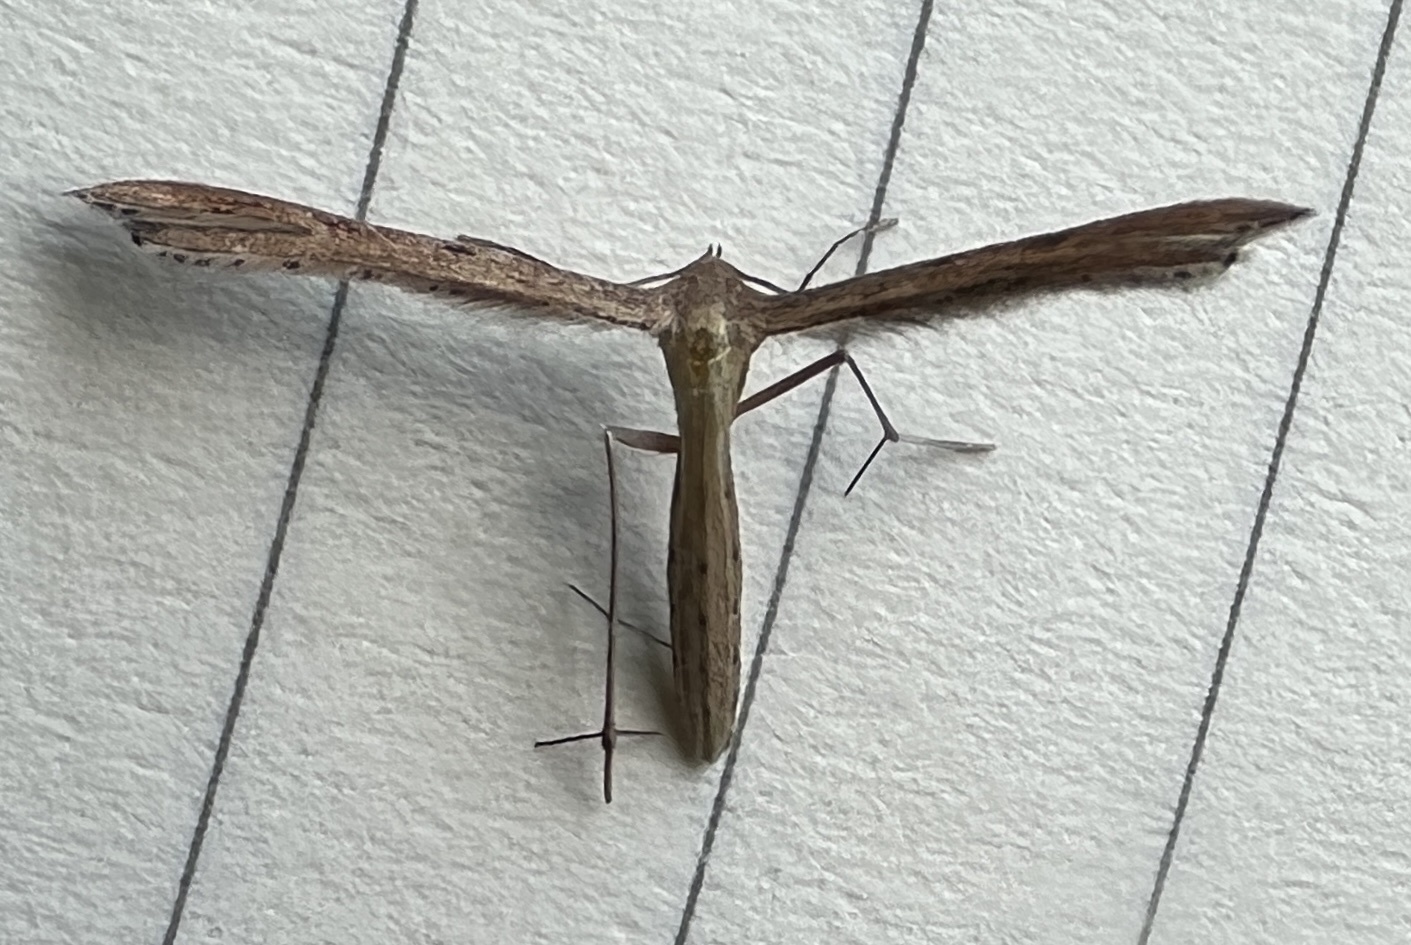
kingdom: Animalia
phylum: Arthropoda
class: Insecta
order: Lepidoptera
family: Pterophoridae
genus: Exelastis
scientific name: Exelastis pumilio
